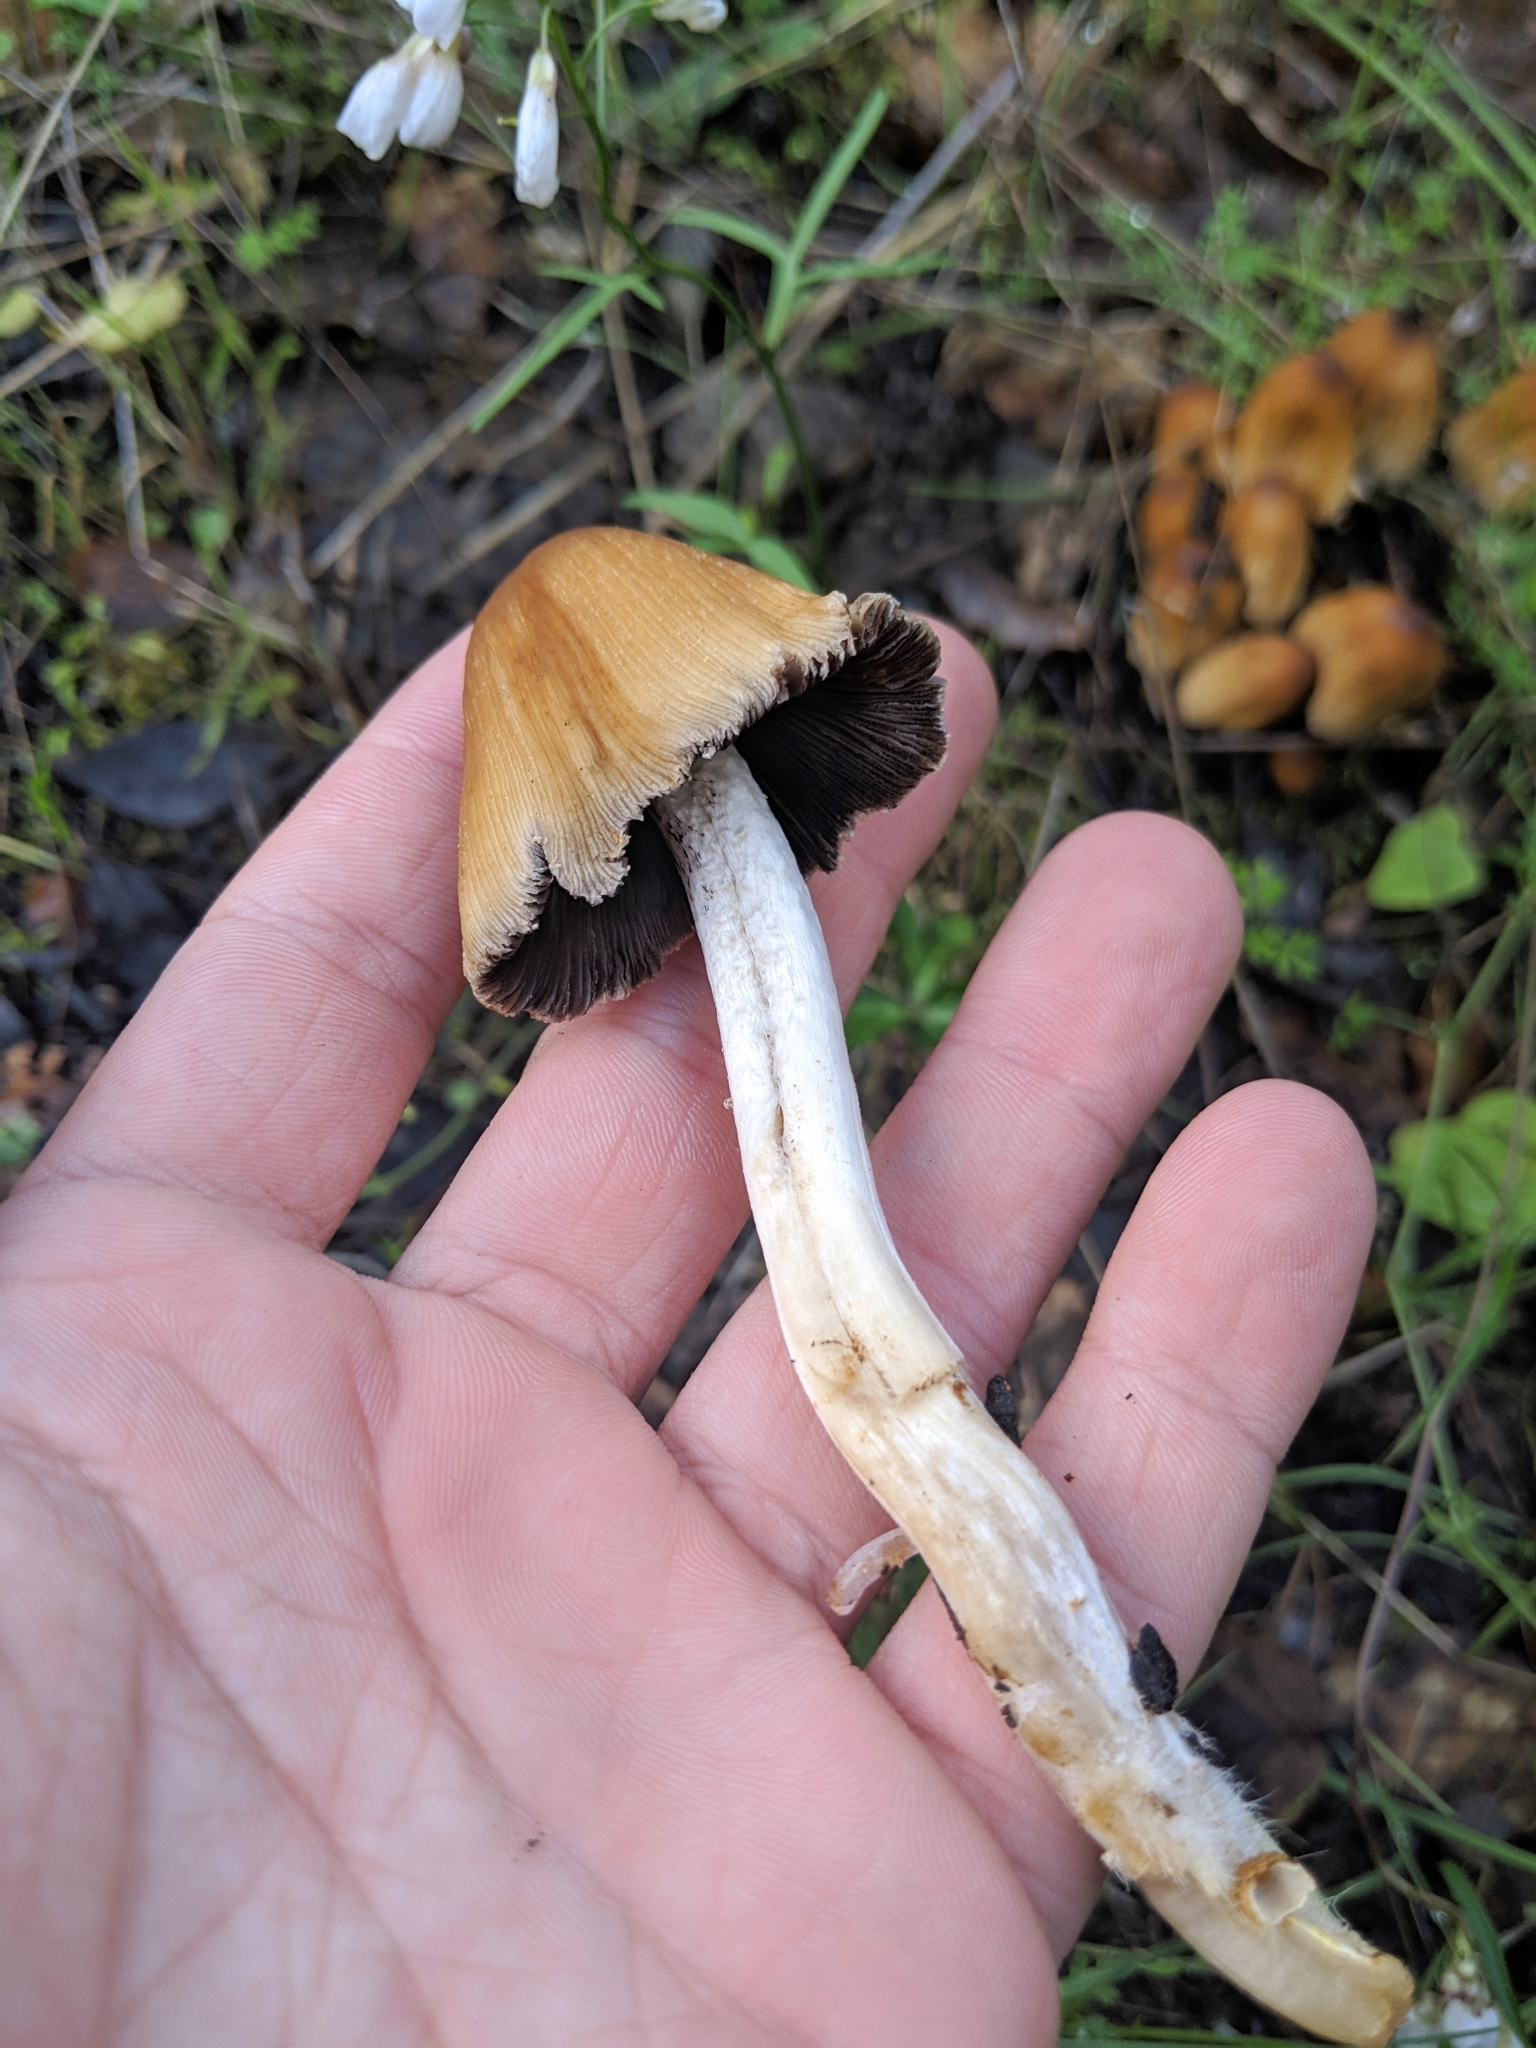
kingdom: Fungi
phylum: Basidiomycota
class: Agaricomycetes
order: Agaricales
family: Psathyrellaceae
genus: Coprinellus
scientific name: Coprinellus micaceus
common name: Glistening ink-cap
